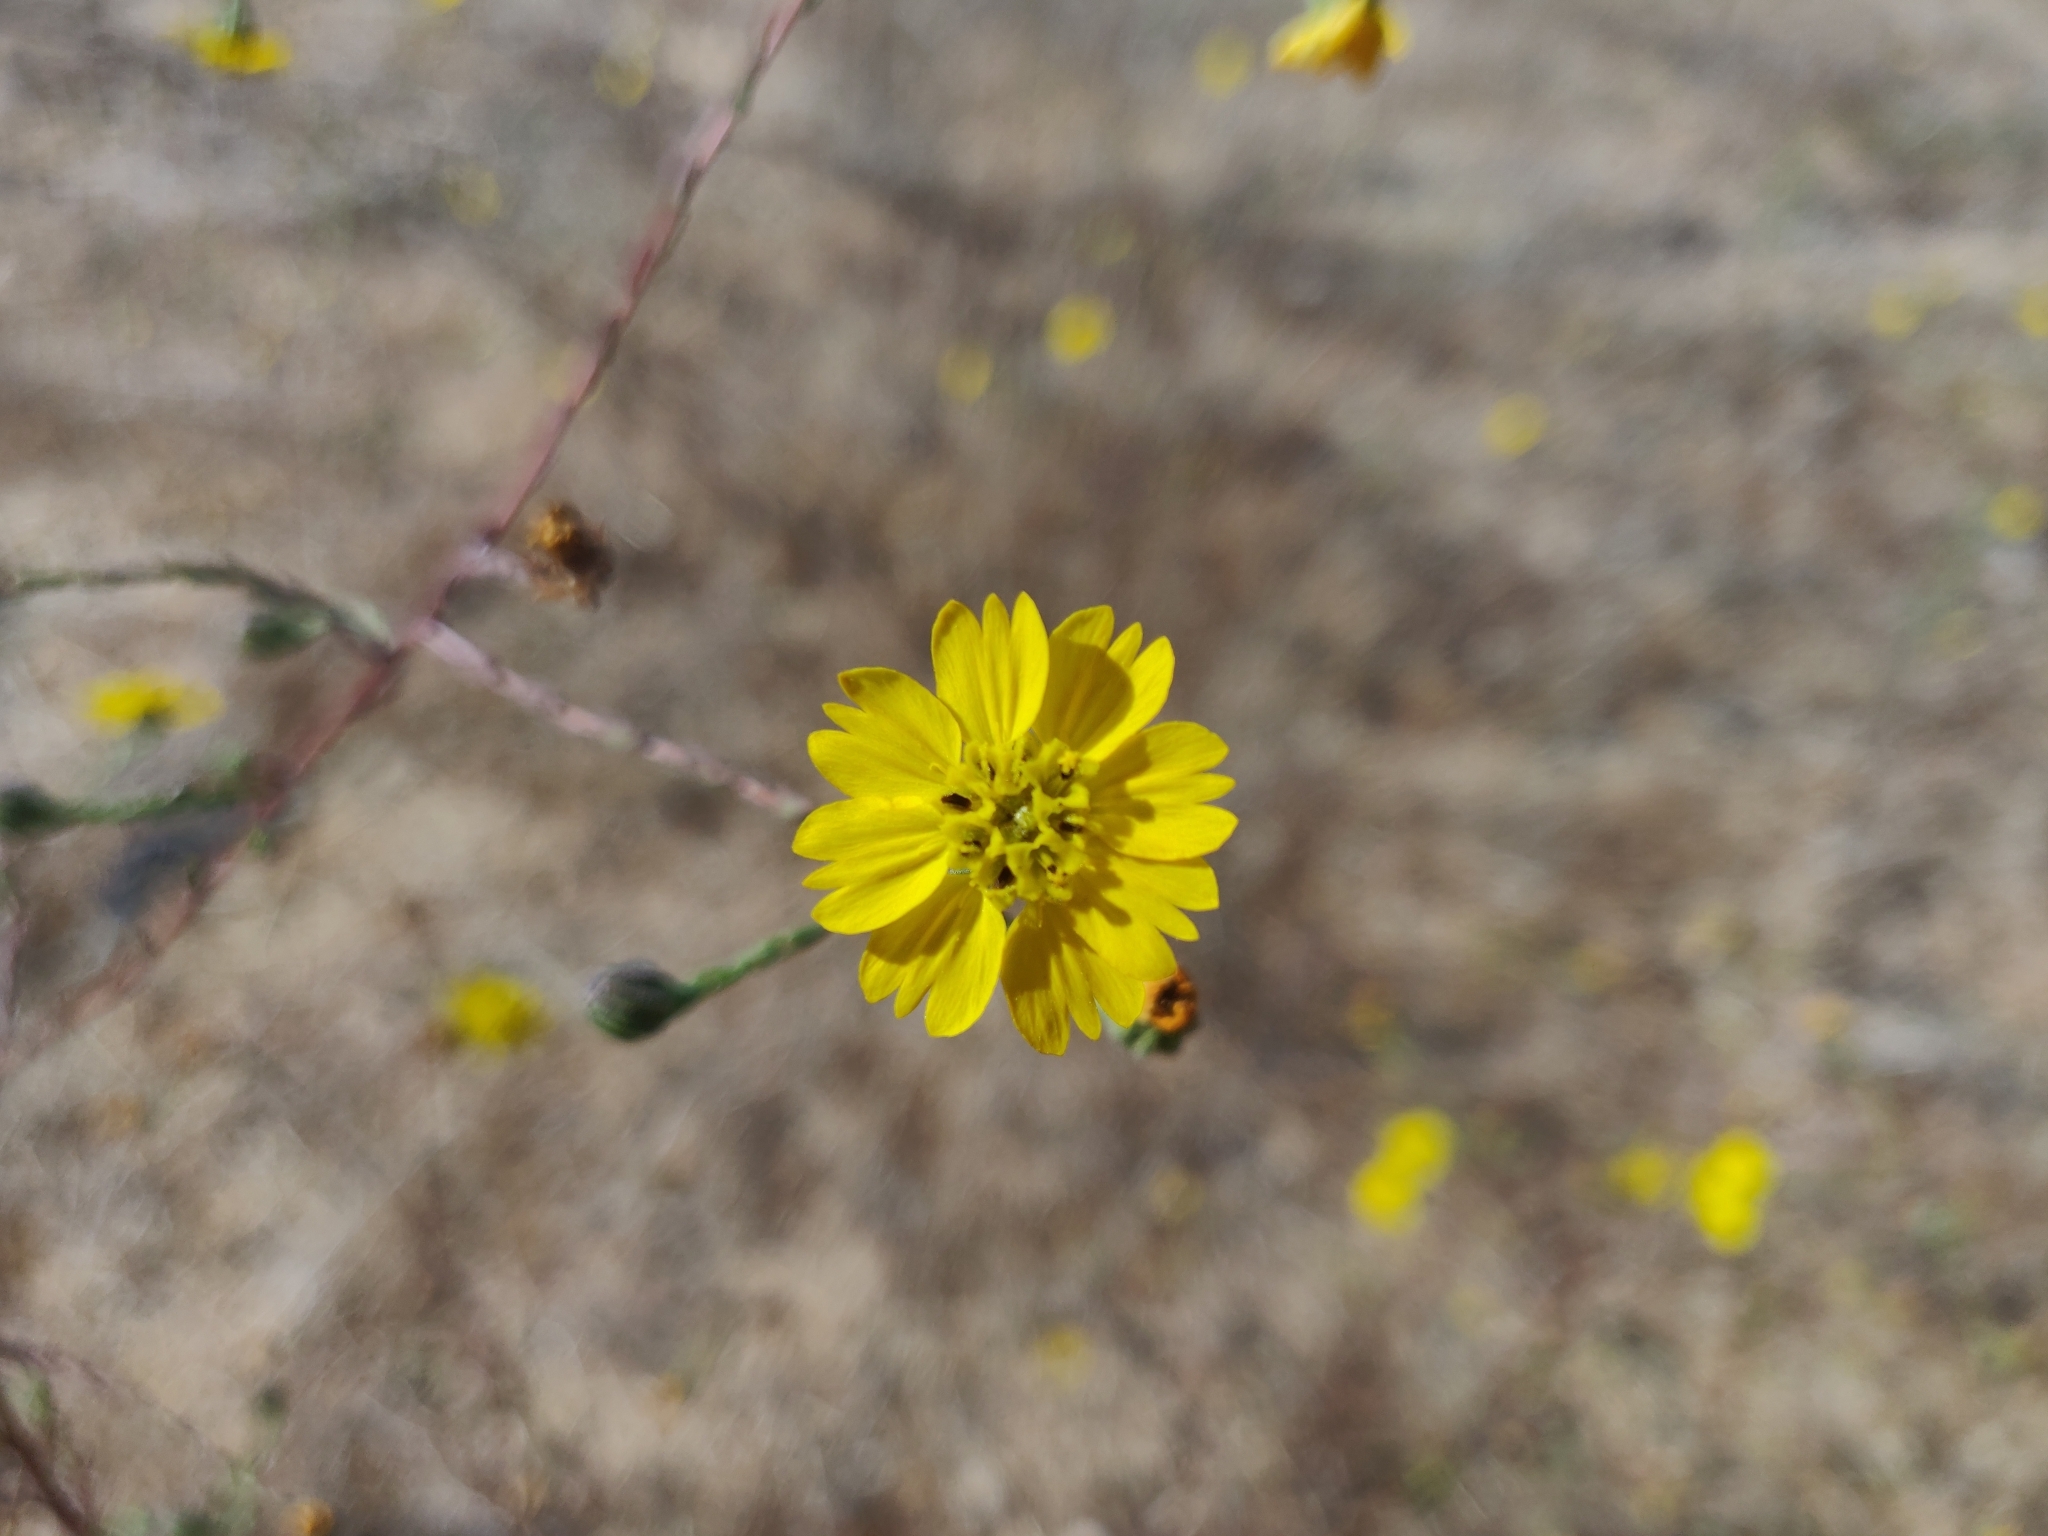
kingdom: Plantae
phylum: Tracheophyta
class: Magnoliopsida
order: Asterales
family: Asteraceae
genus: Deinandra
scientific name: Deinandra paniculata
